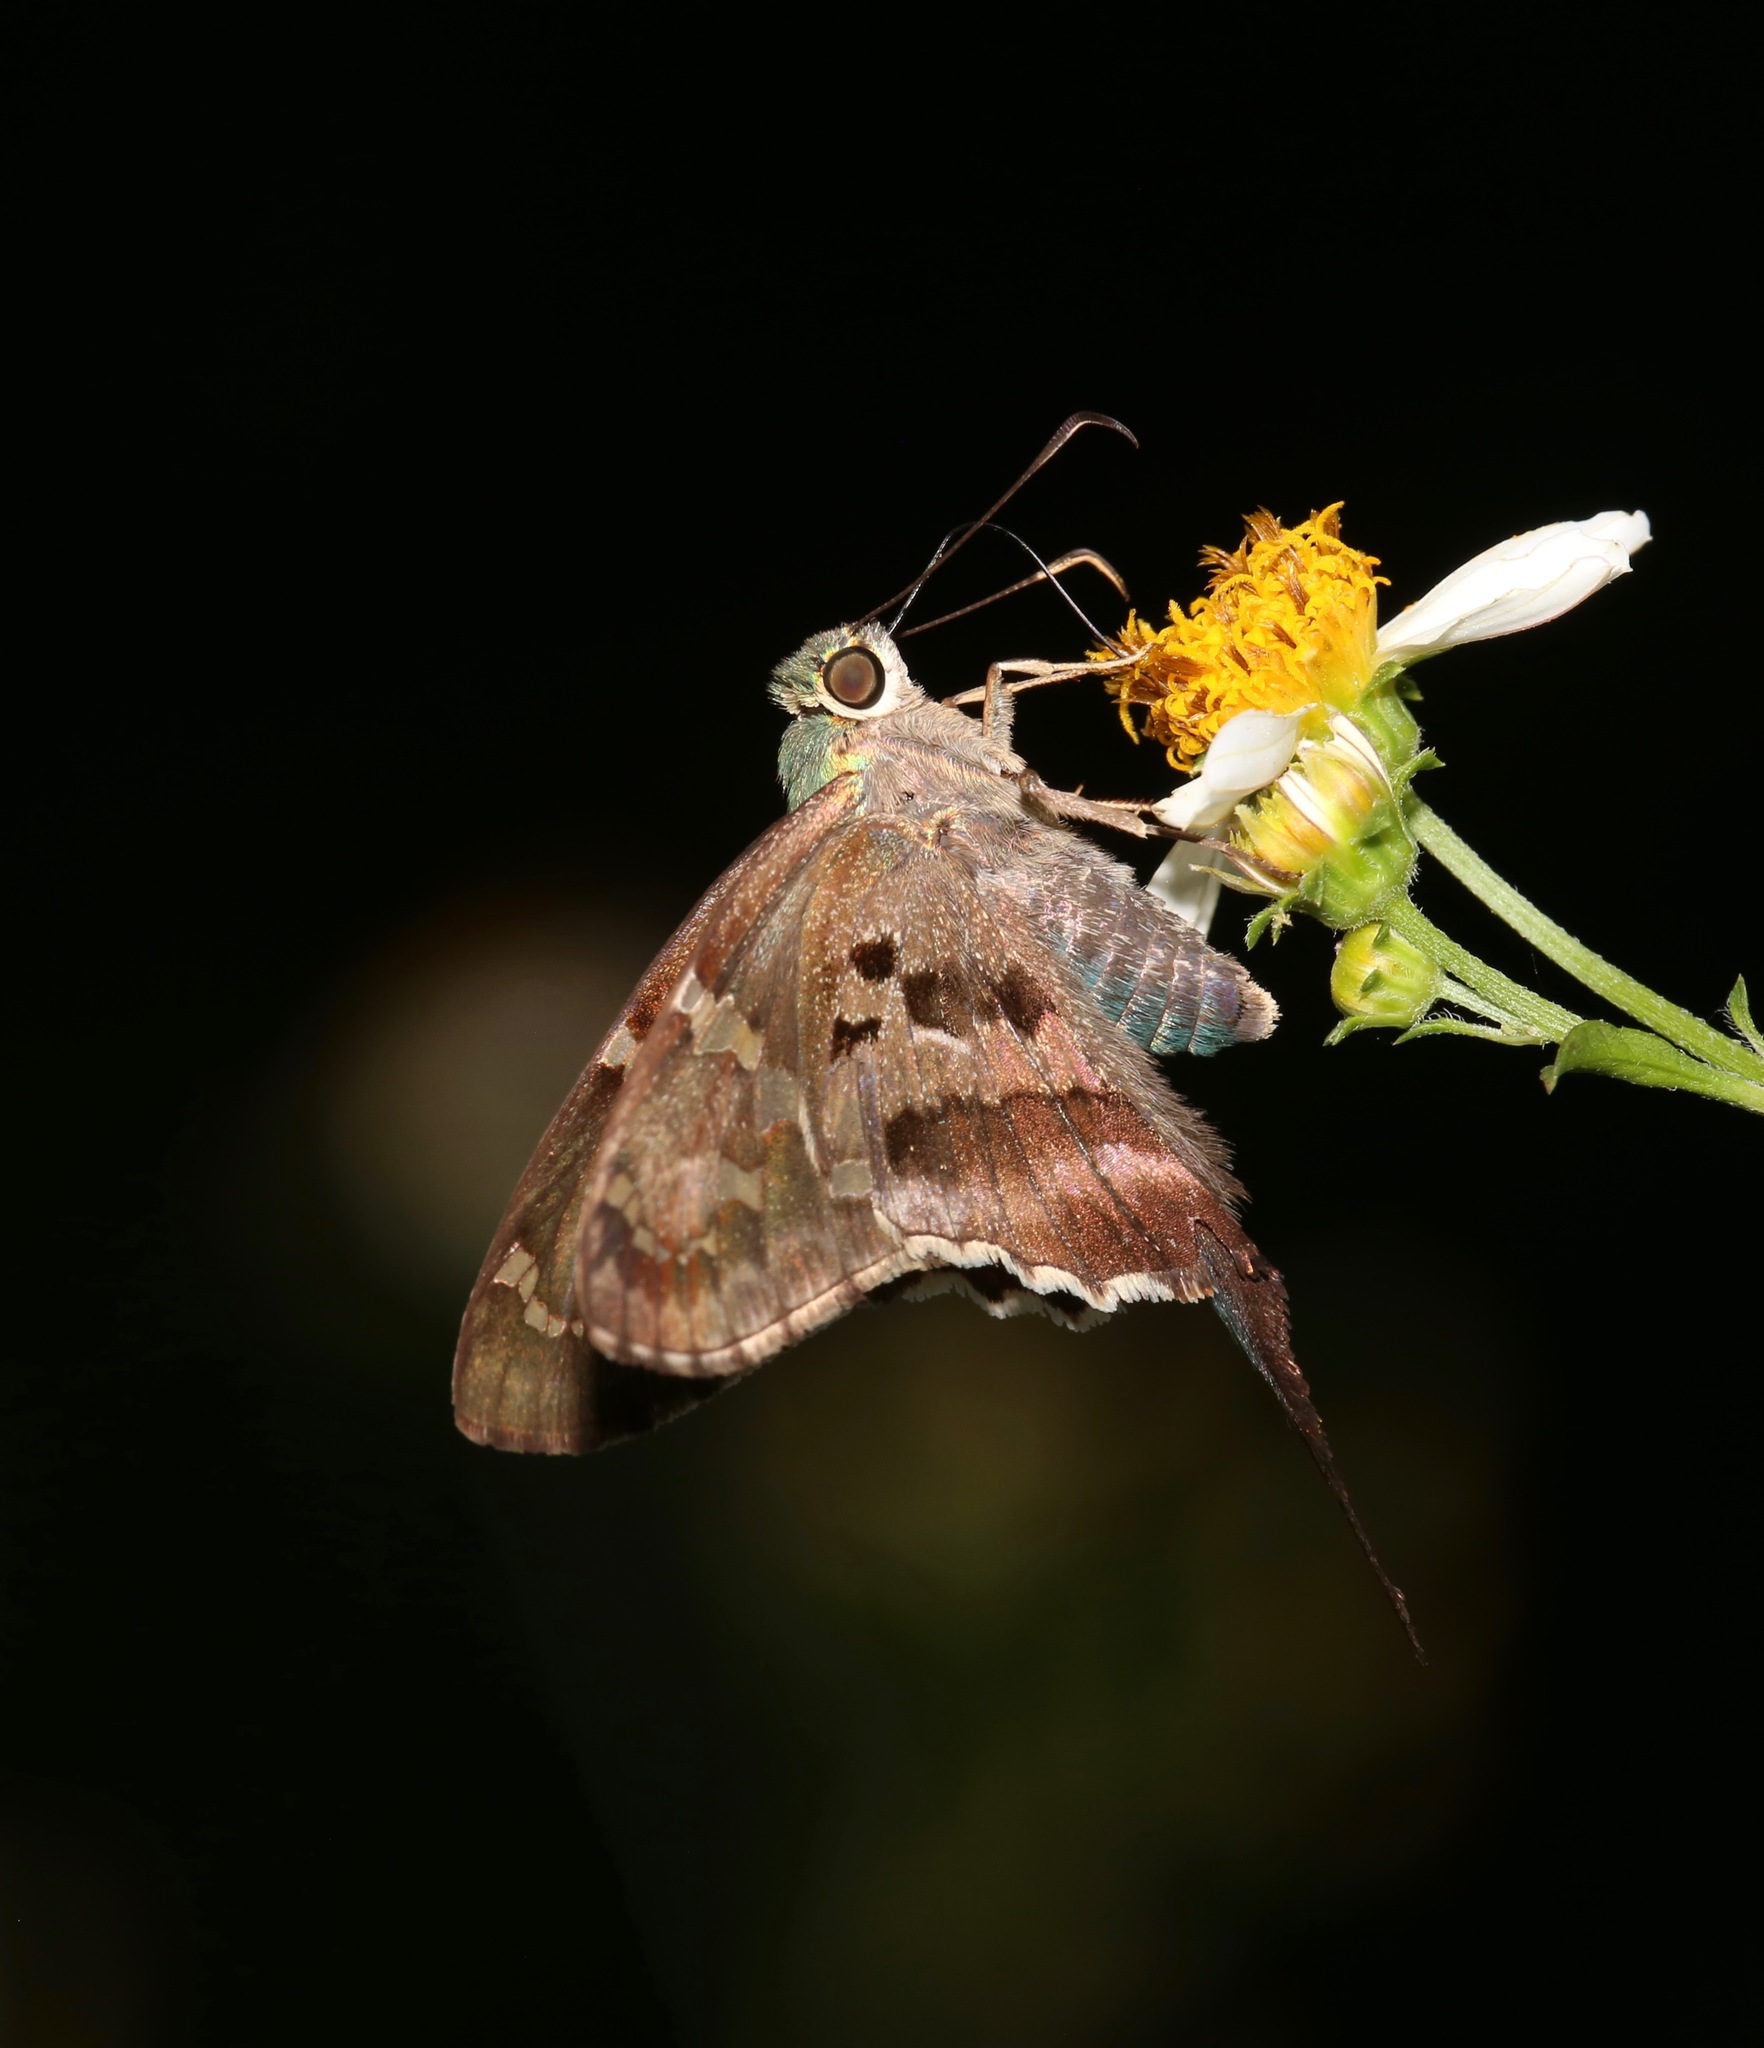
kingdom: Animalia
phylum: Arthropoda
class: Insecta
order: Lepidoptera
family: Hesperiidae
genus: Urbanus
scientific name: Urbanus proteus
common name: Long-tailed skipper
